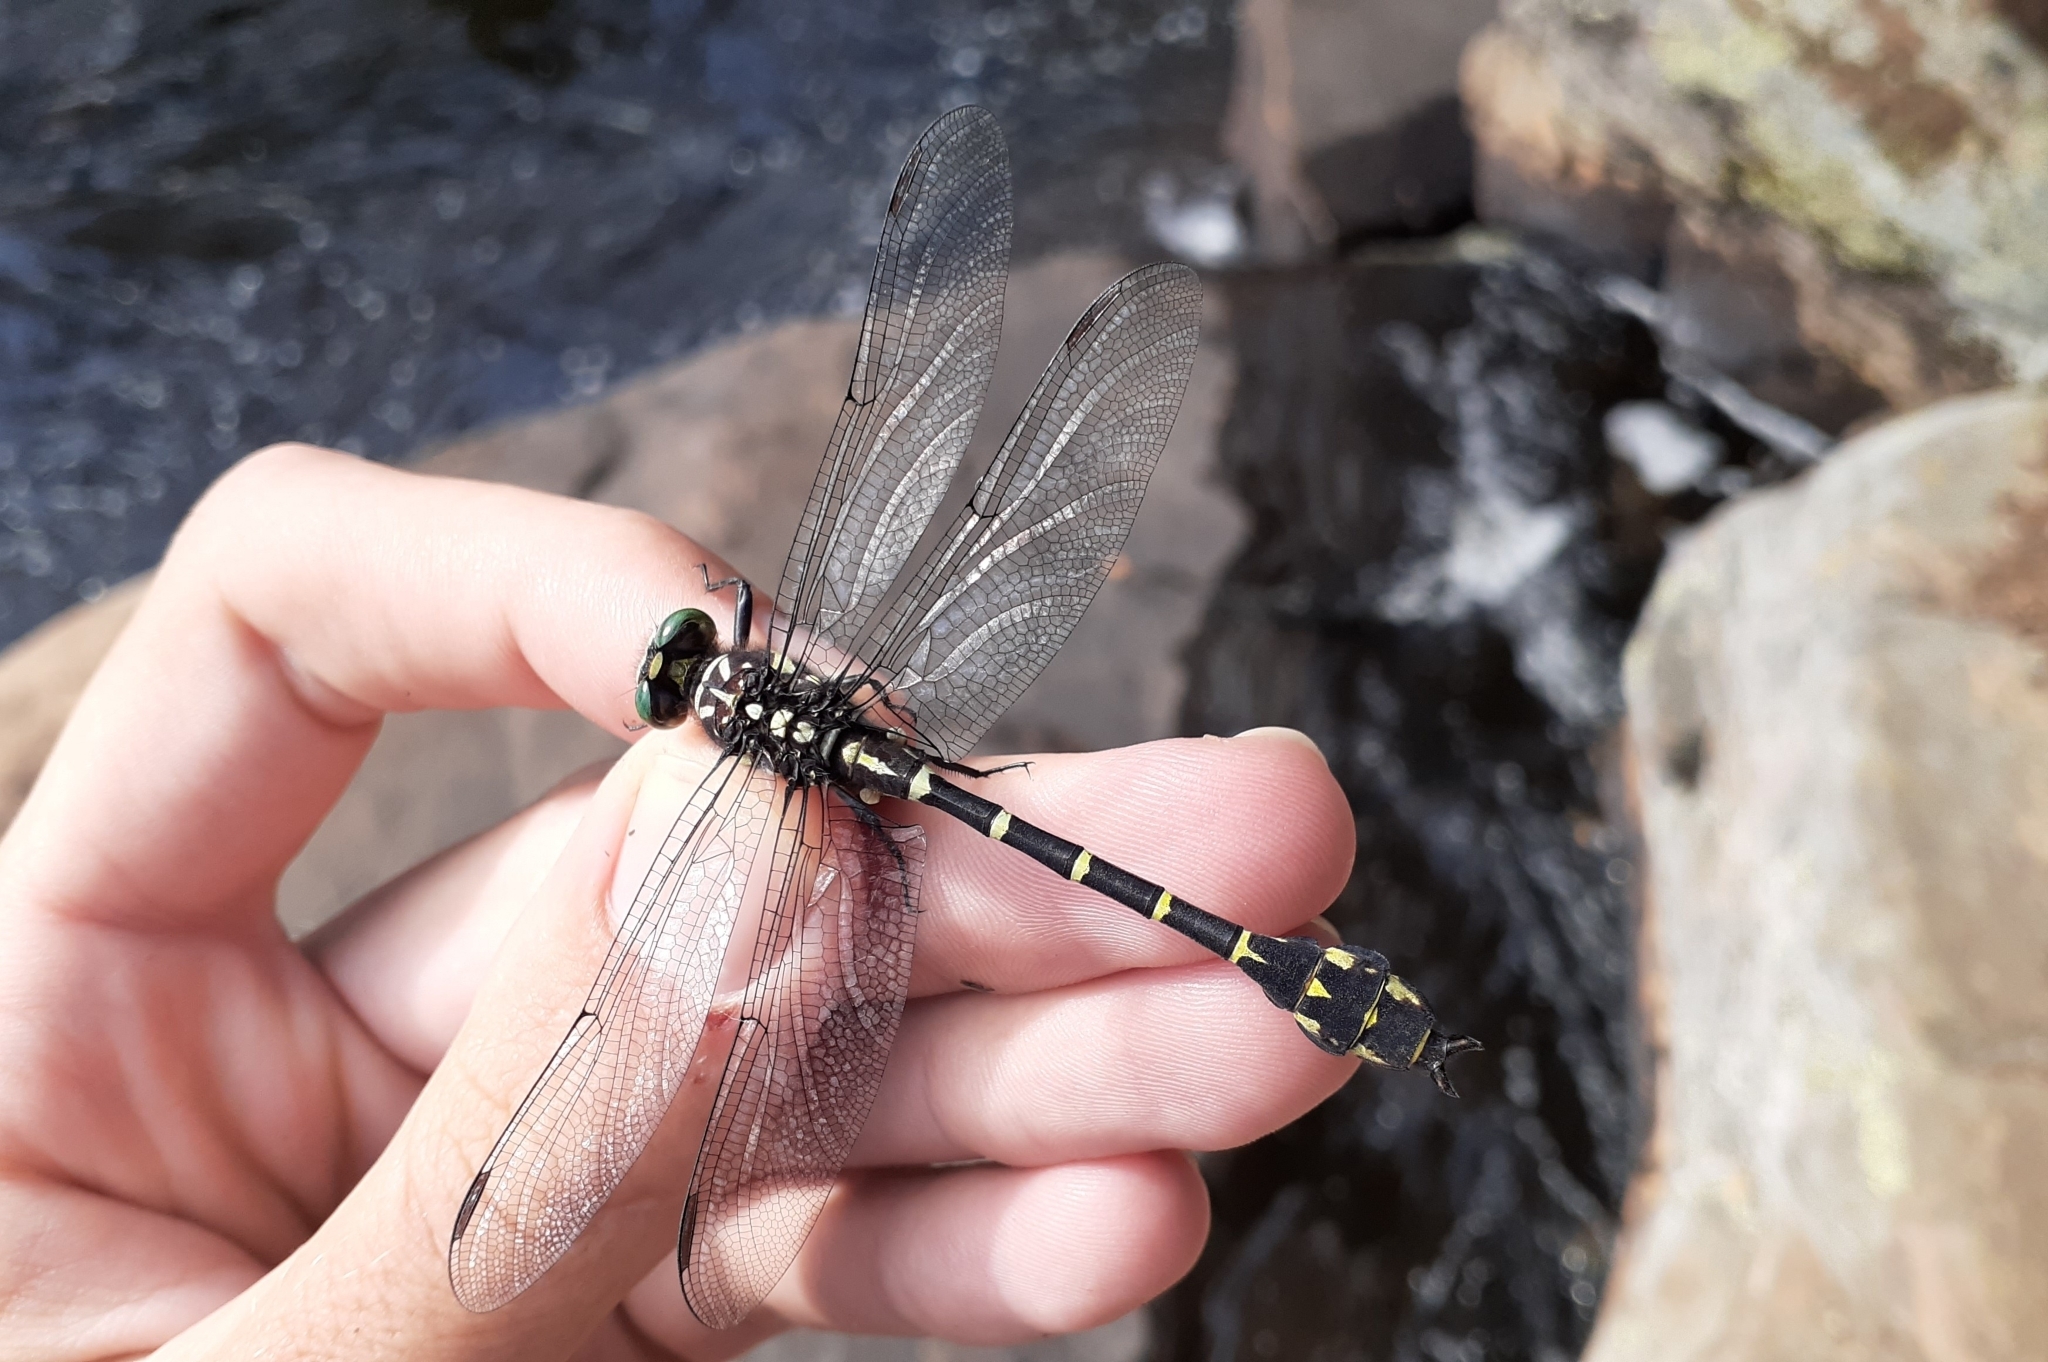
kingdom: Animalia
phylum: Arthropoda
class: Insecta
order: Odonata
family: Gomphidae
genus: Stylurus
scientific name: Stylurus scudderi
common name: Zebra clubtail
